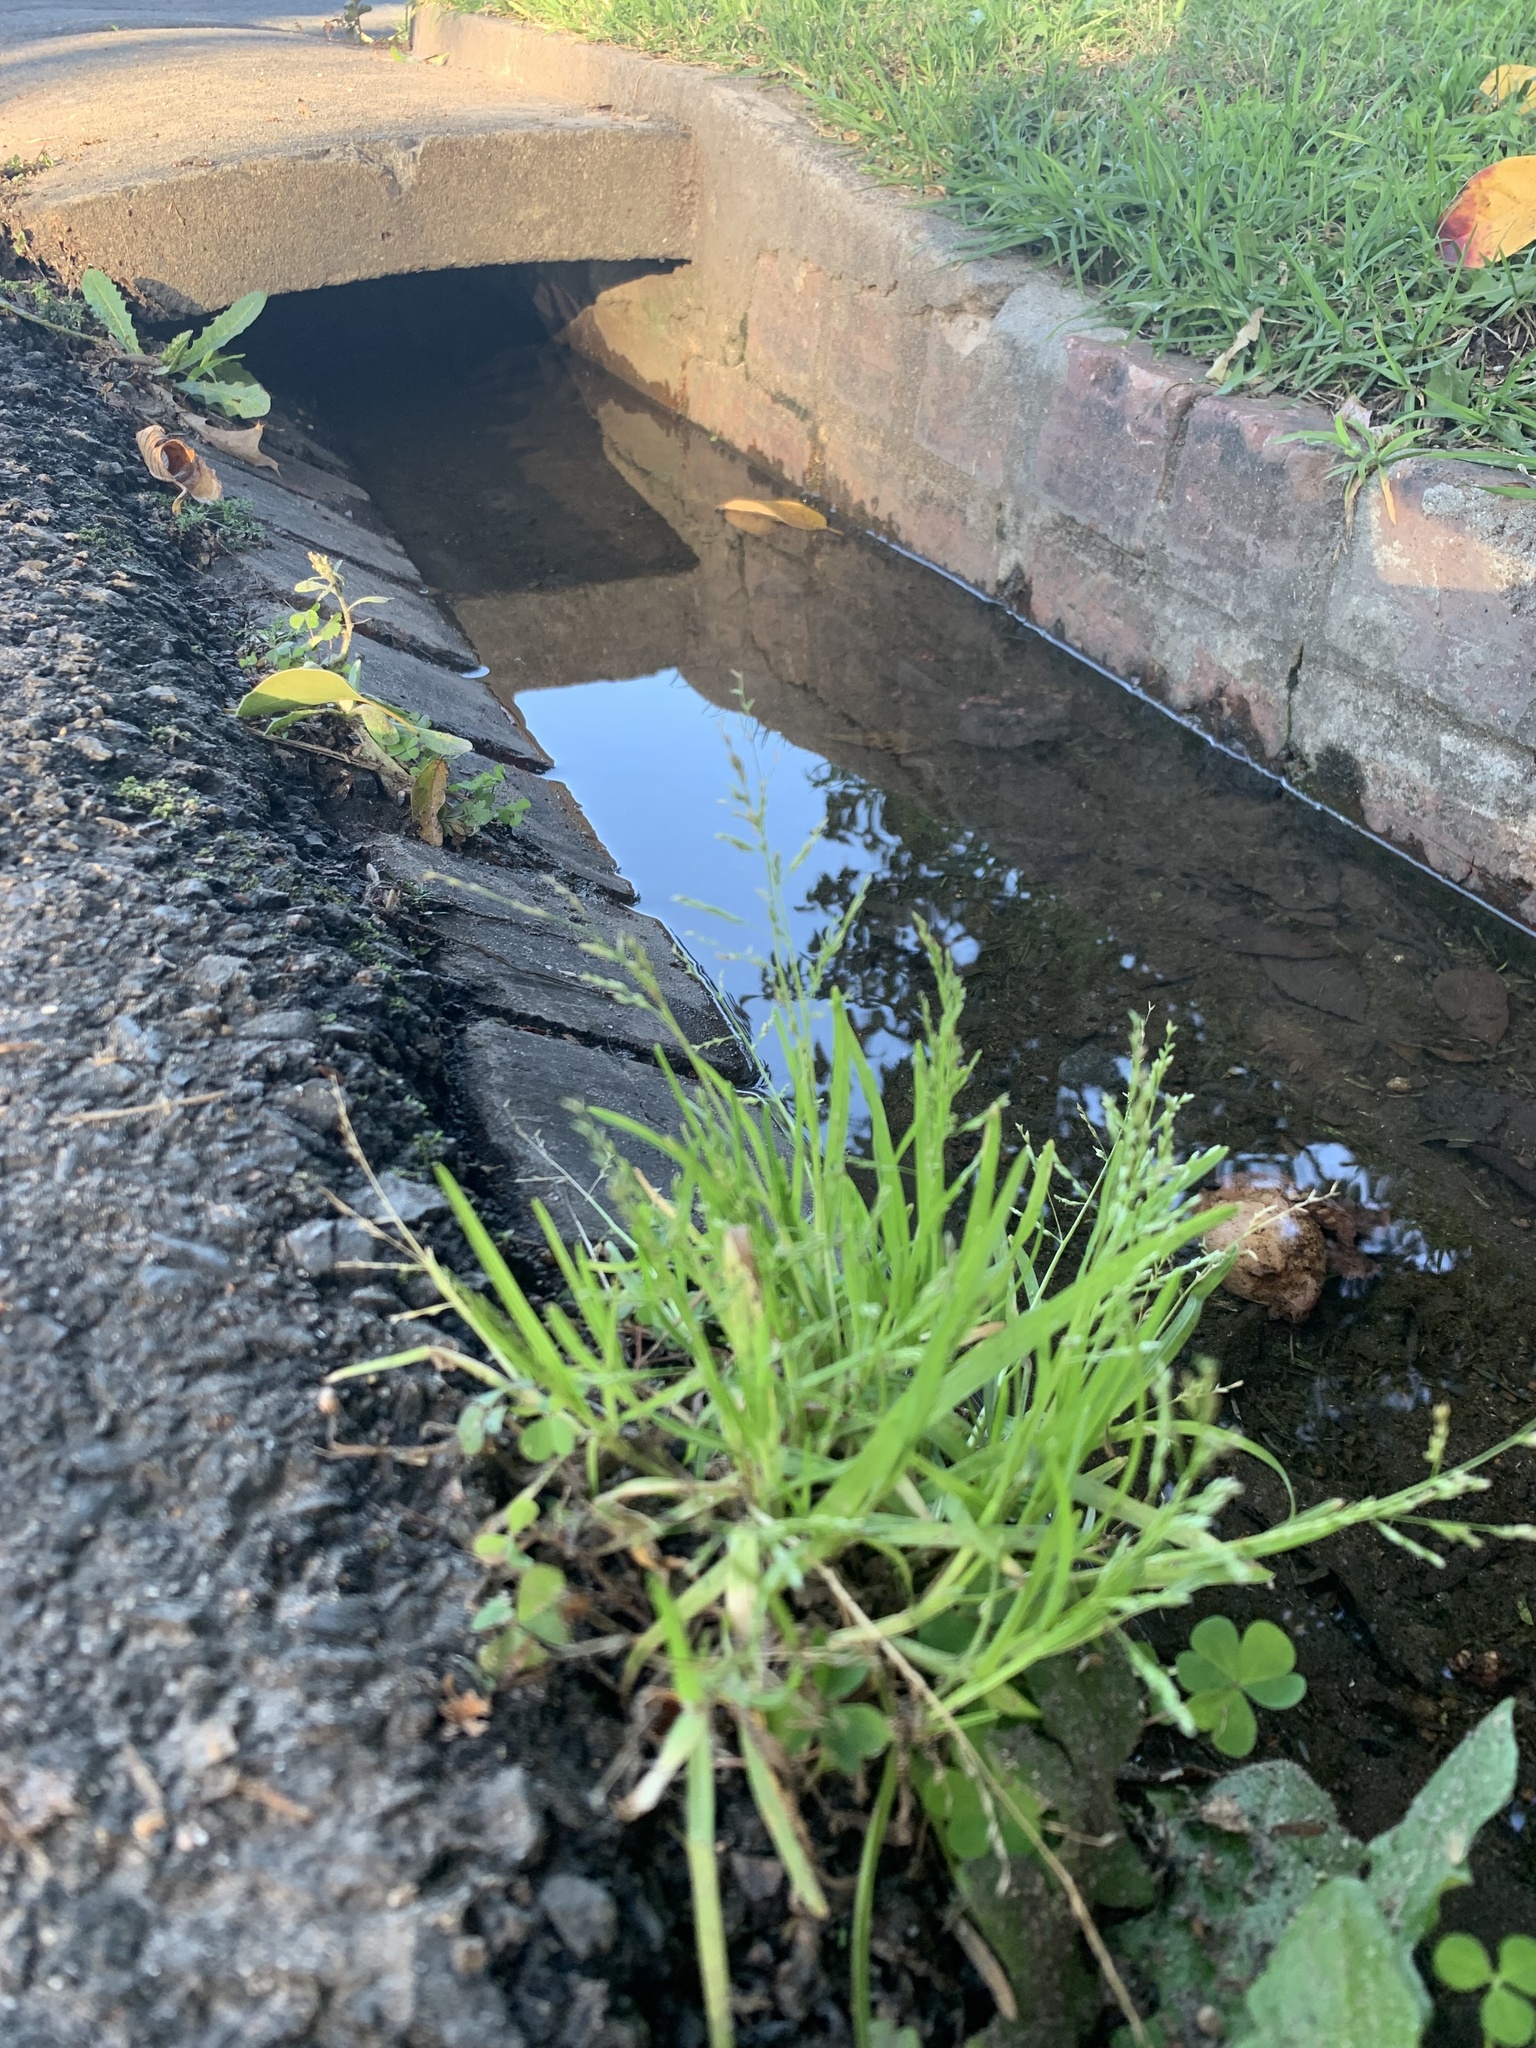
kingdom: Plantae
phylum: Tracheophyta
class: Liliopsida
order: Poales
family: Poaceae
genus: Poa
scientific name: Poa annua
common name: Annual bluegrass
